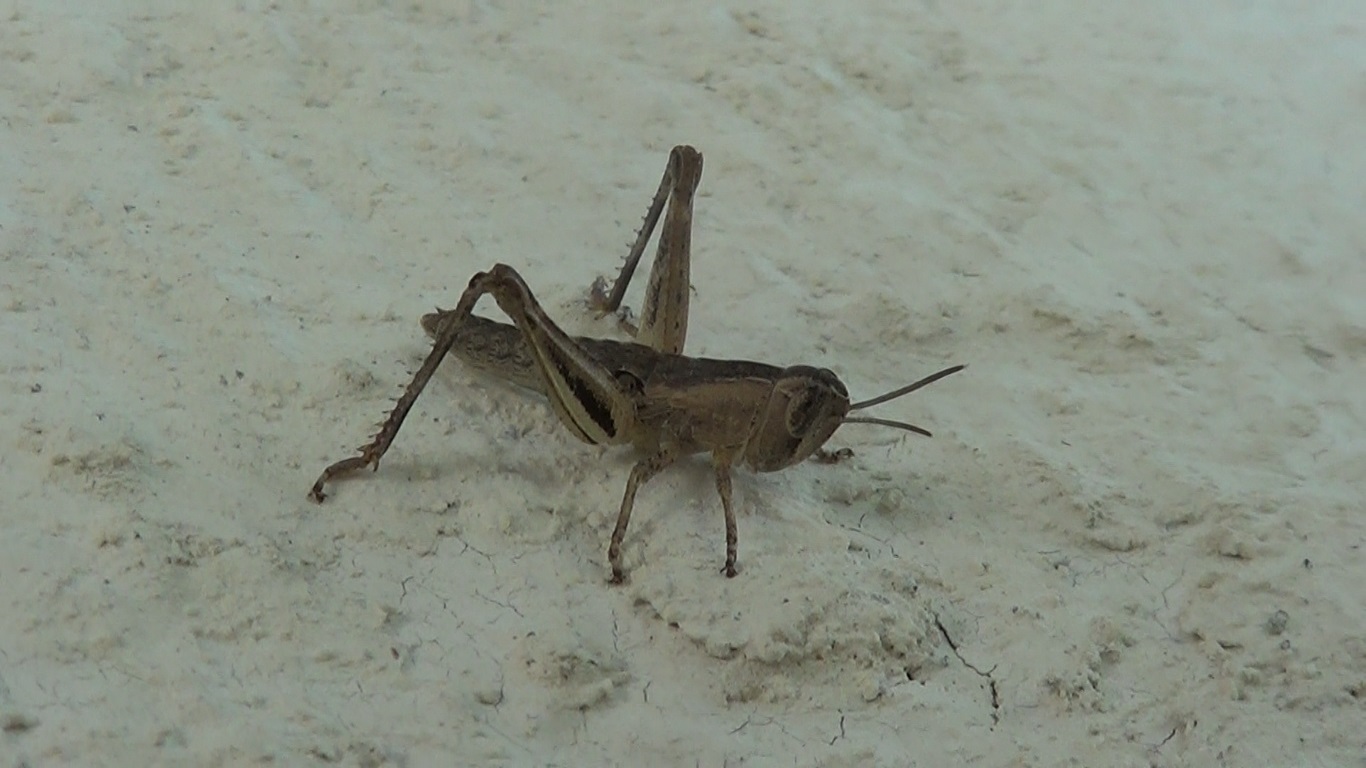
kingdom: Animalia
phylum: Arthropoda
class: Insecta
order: Orthoptera
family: Acrididae
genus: Eyprepocnemis
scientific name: Eyprepocnemis plorans
